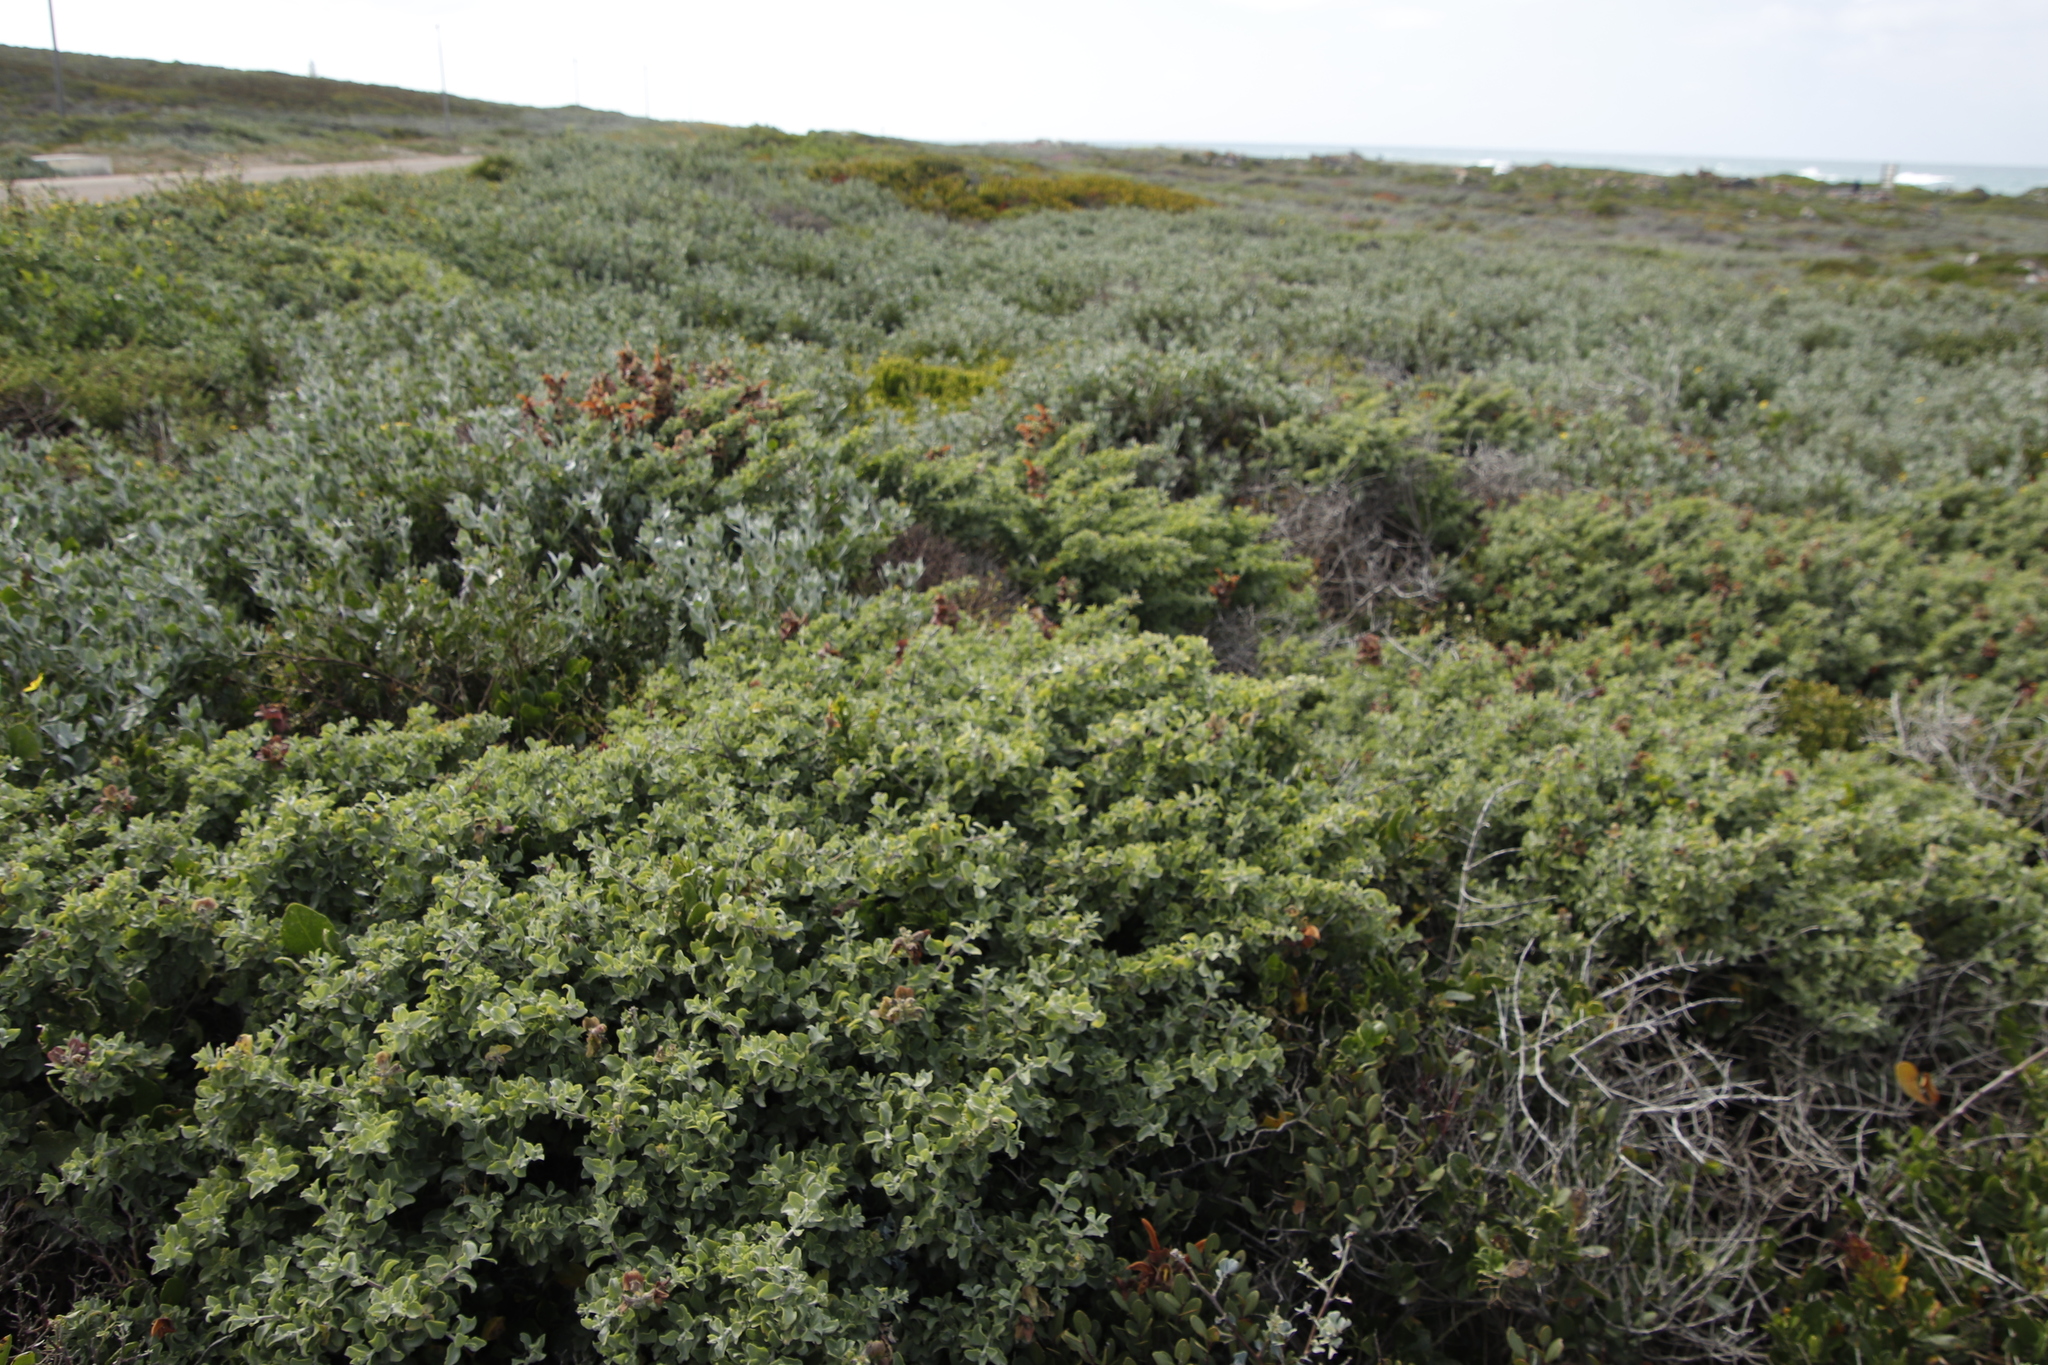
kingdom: Plantae
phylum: Tracheophyta
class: Magnoliopsida
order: Lamiales
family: Lamiaceae
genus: Salvia
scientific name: Salvia aurea
